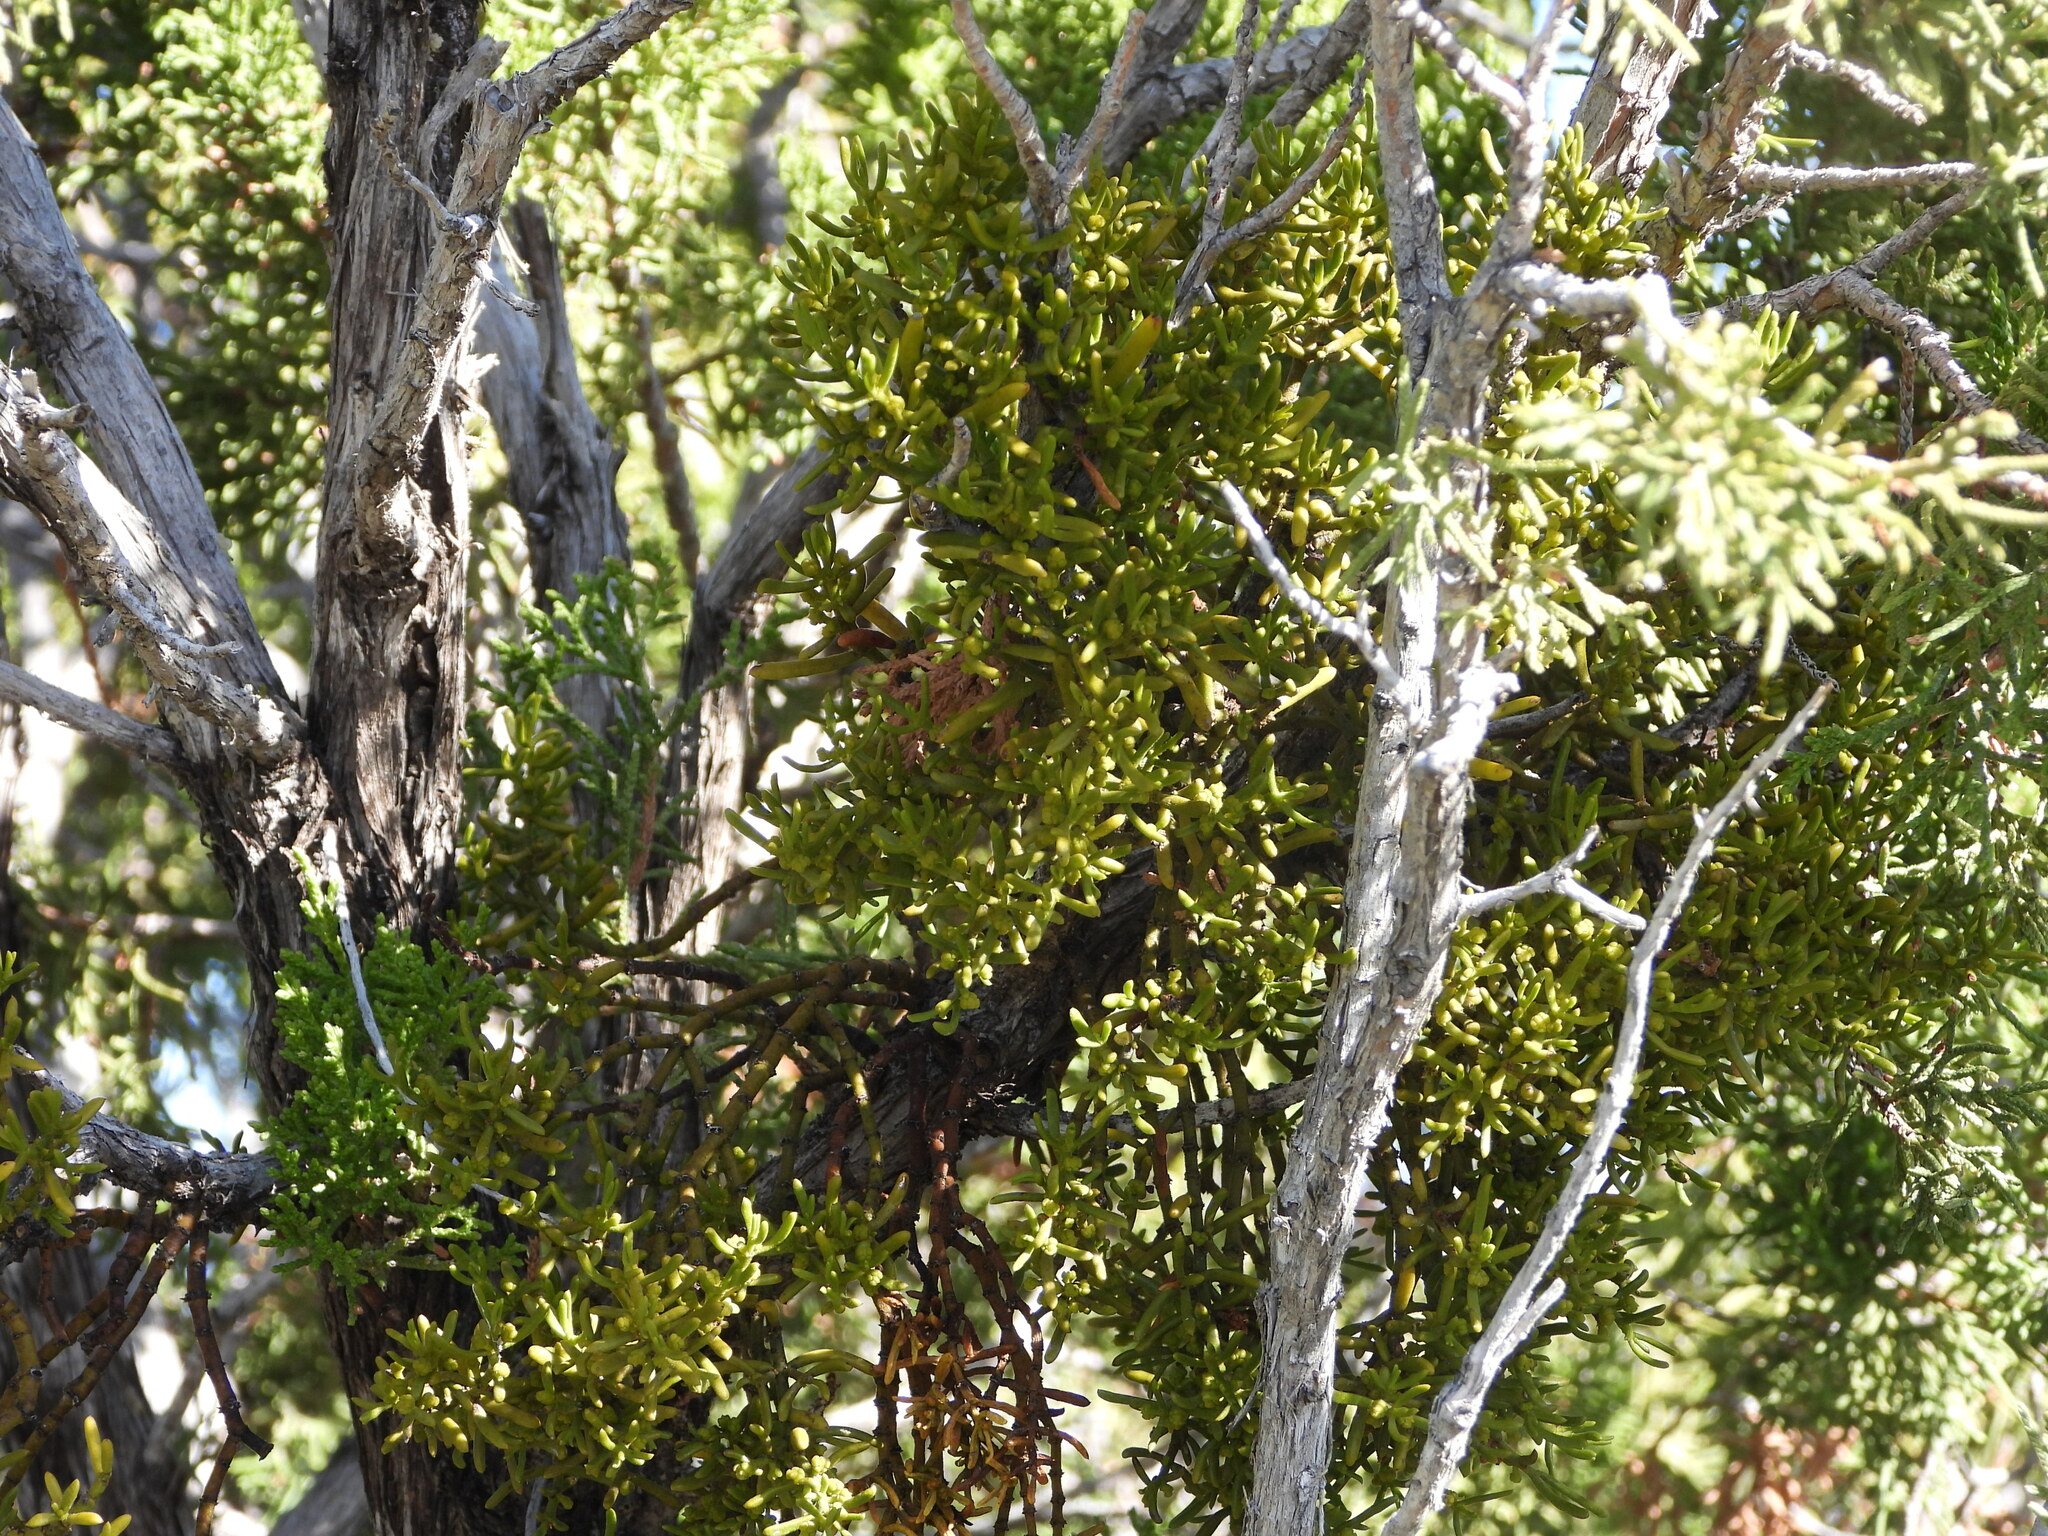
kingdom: Plantae
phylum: Tracheophyta
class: Magnoliopsida
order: Santalales
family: Viscaceae
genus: Phoradendron
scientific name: Phoradendron hawksworthii
